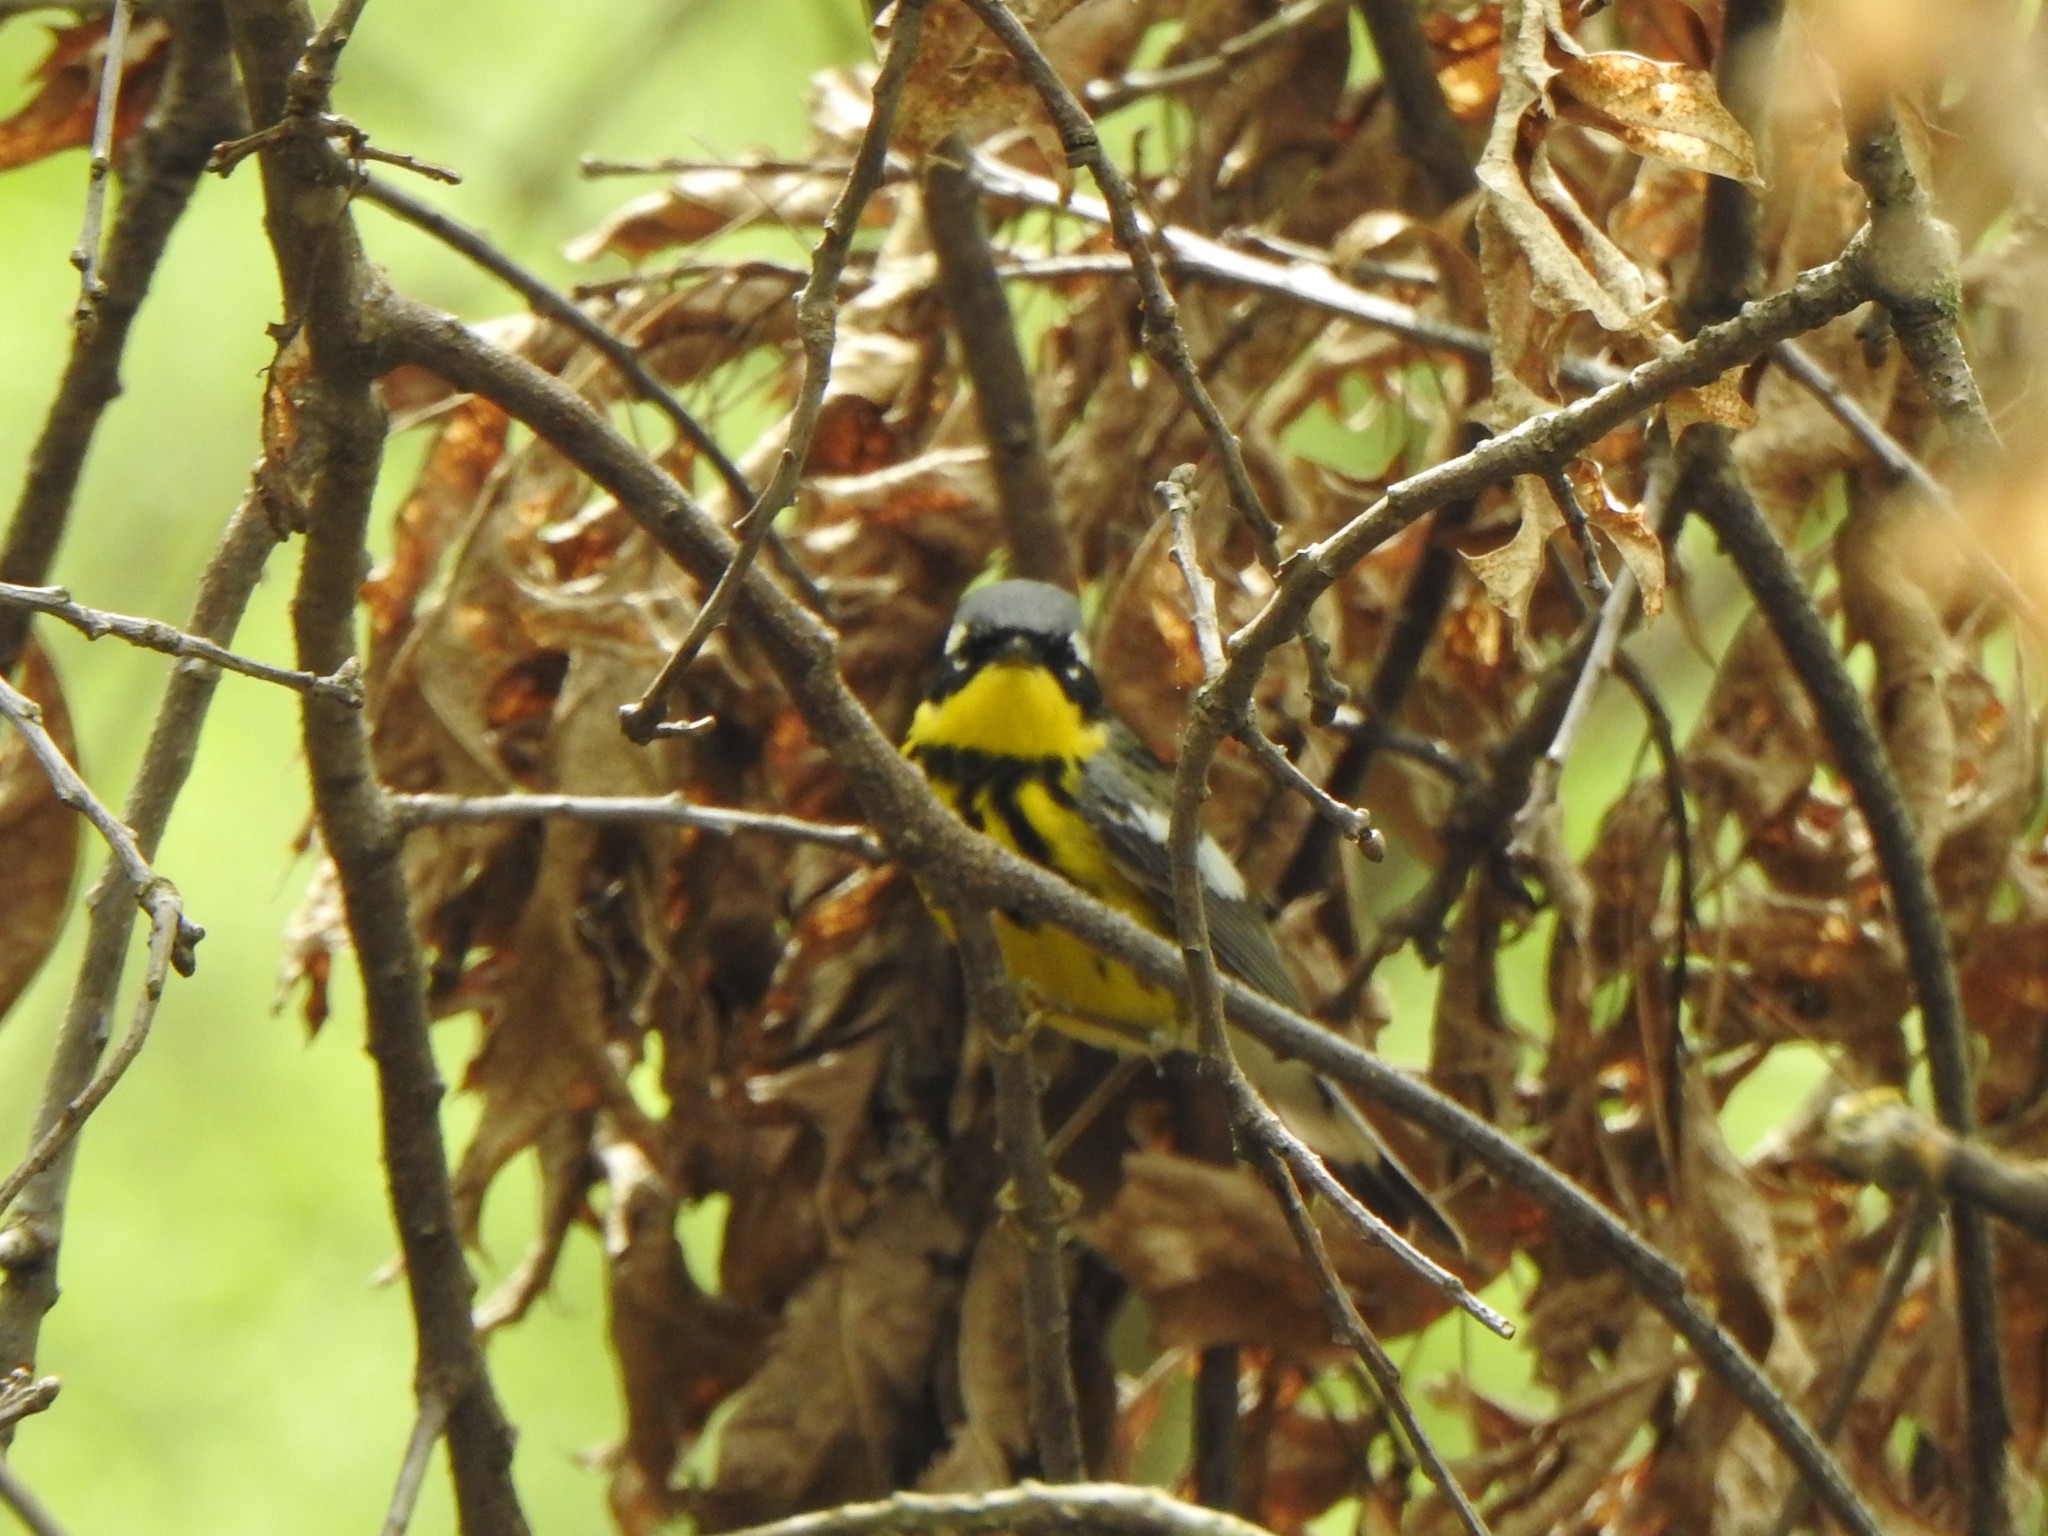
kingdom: Animalia
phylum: Chordata
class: Aves
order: Passeriformes
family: Parulidae
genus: Setophaga
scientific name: Setophaga magnolia
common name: Magnolia warbler
